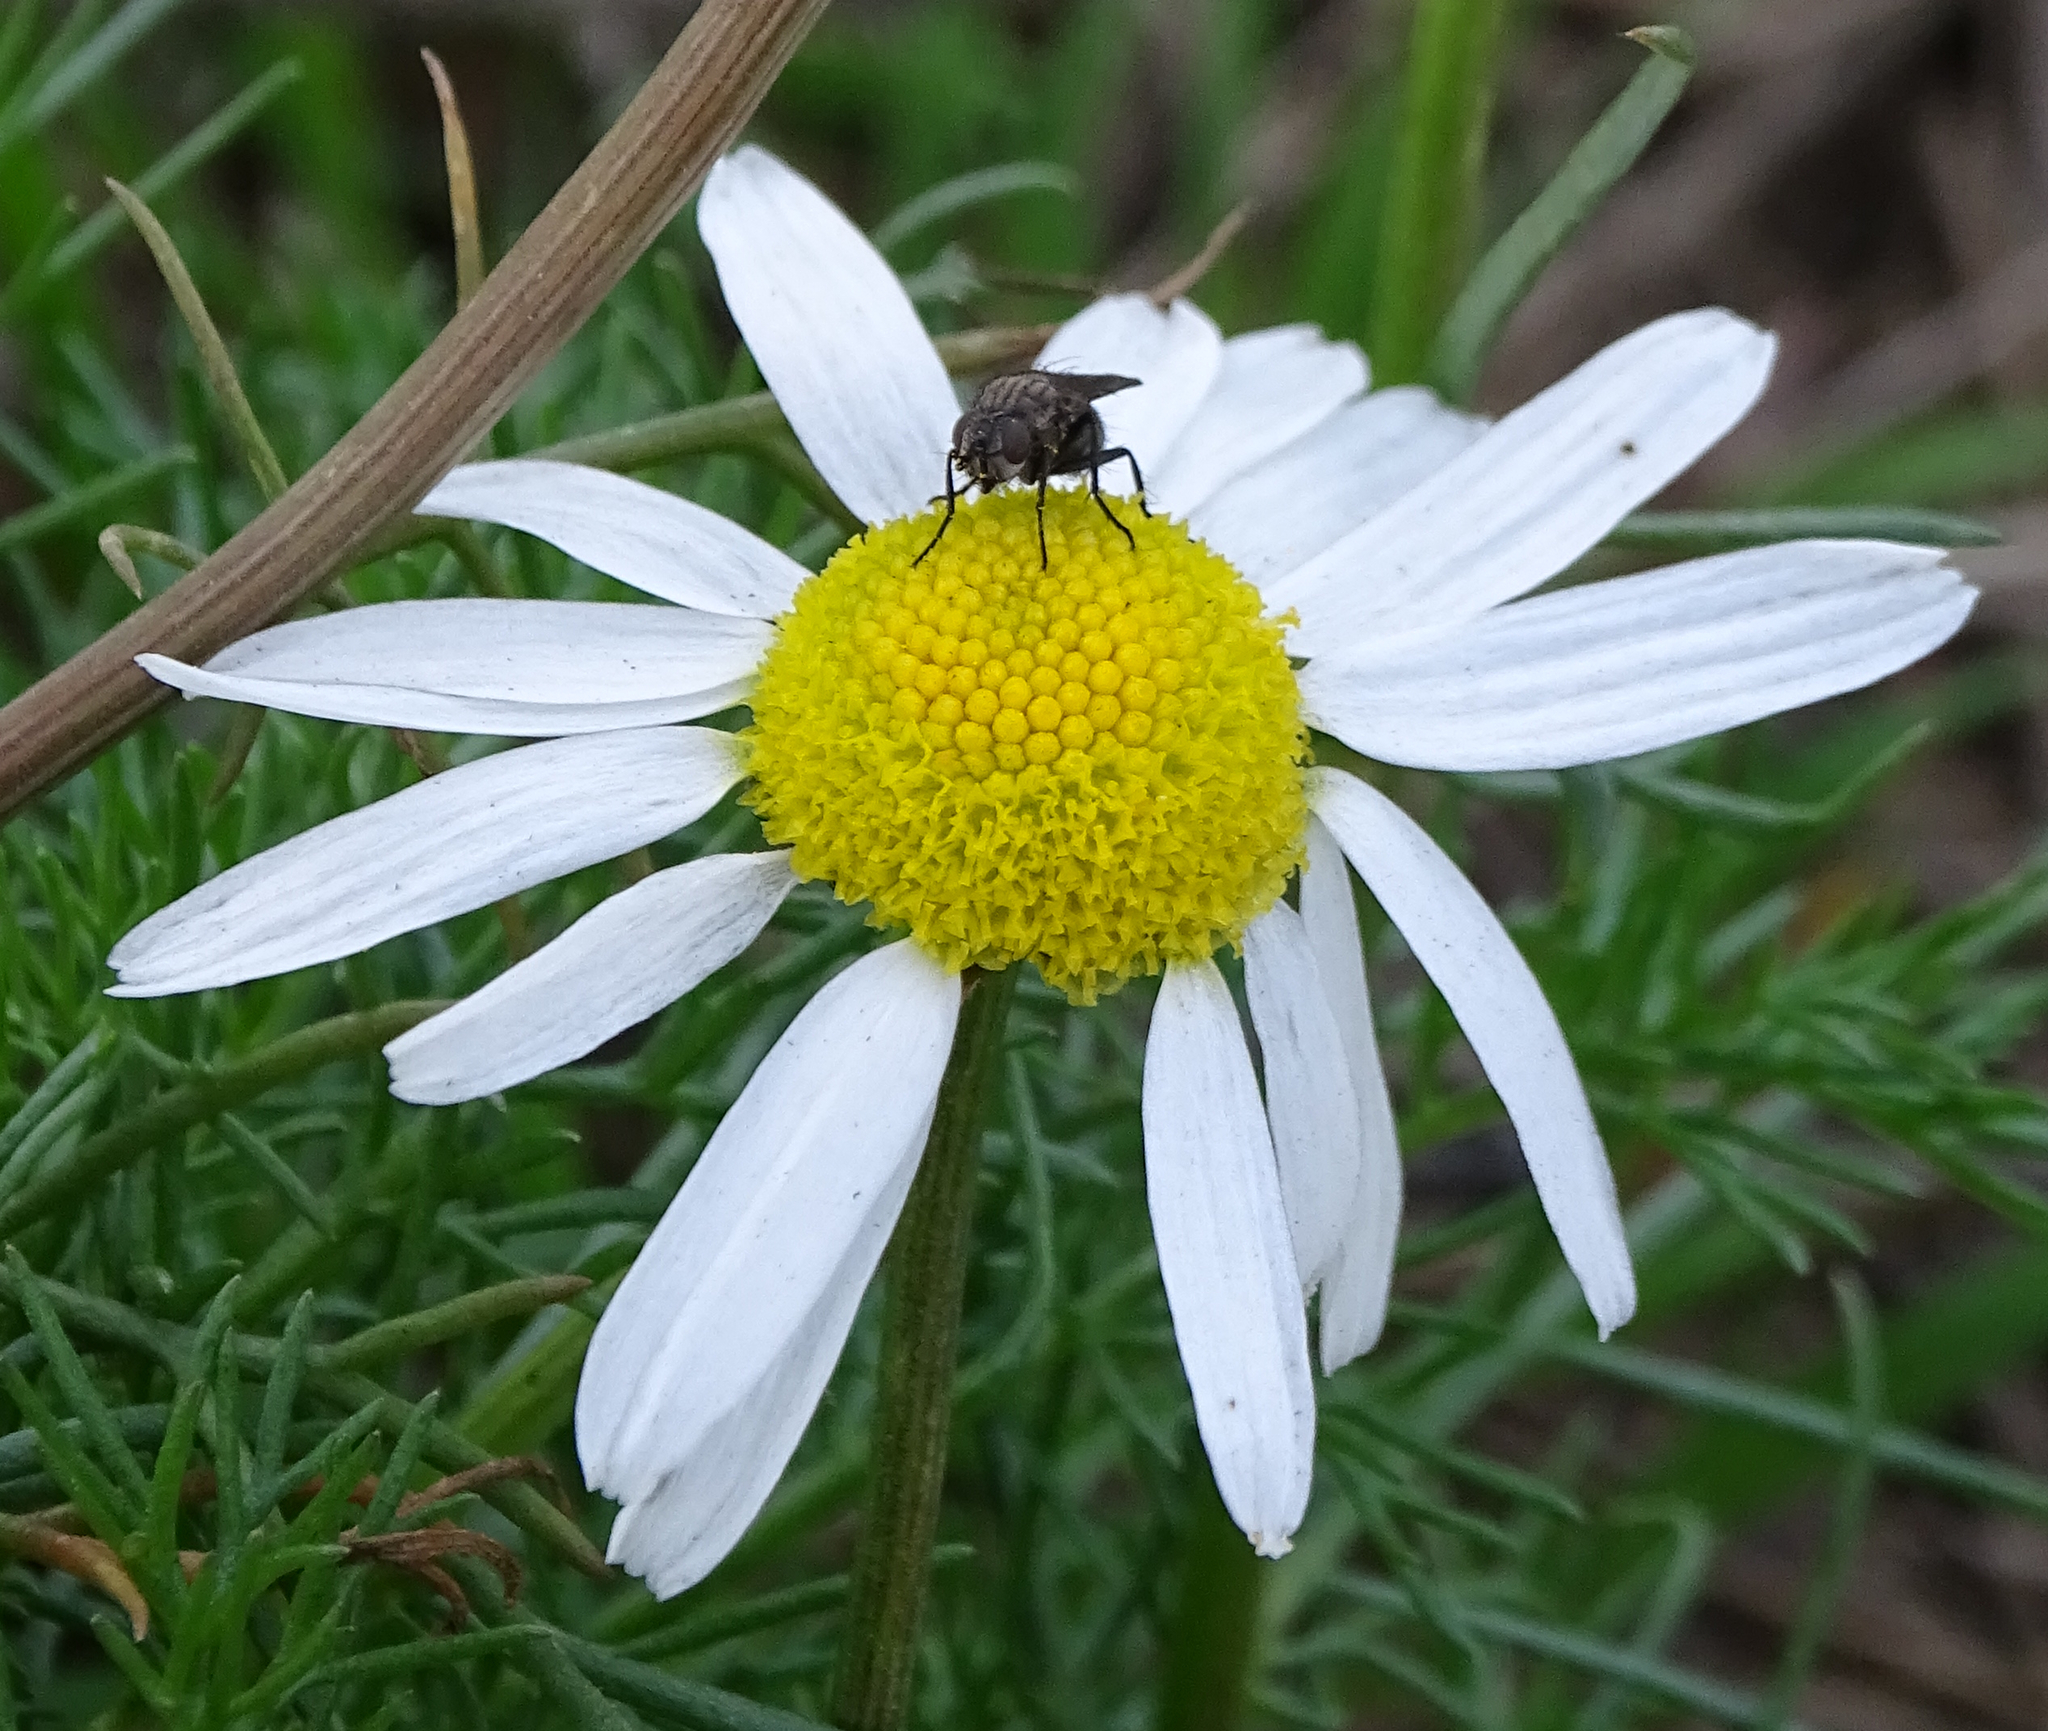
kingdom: Plantae
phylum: Tracheophyta
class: Magnoliopsida
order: Asterales
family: Asteraceae
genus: Tripleurospermum
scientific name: Tripleurospermum inodorum
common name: Scentless mayweed
